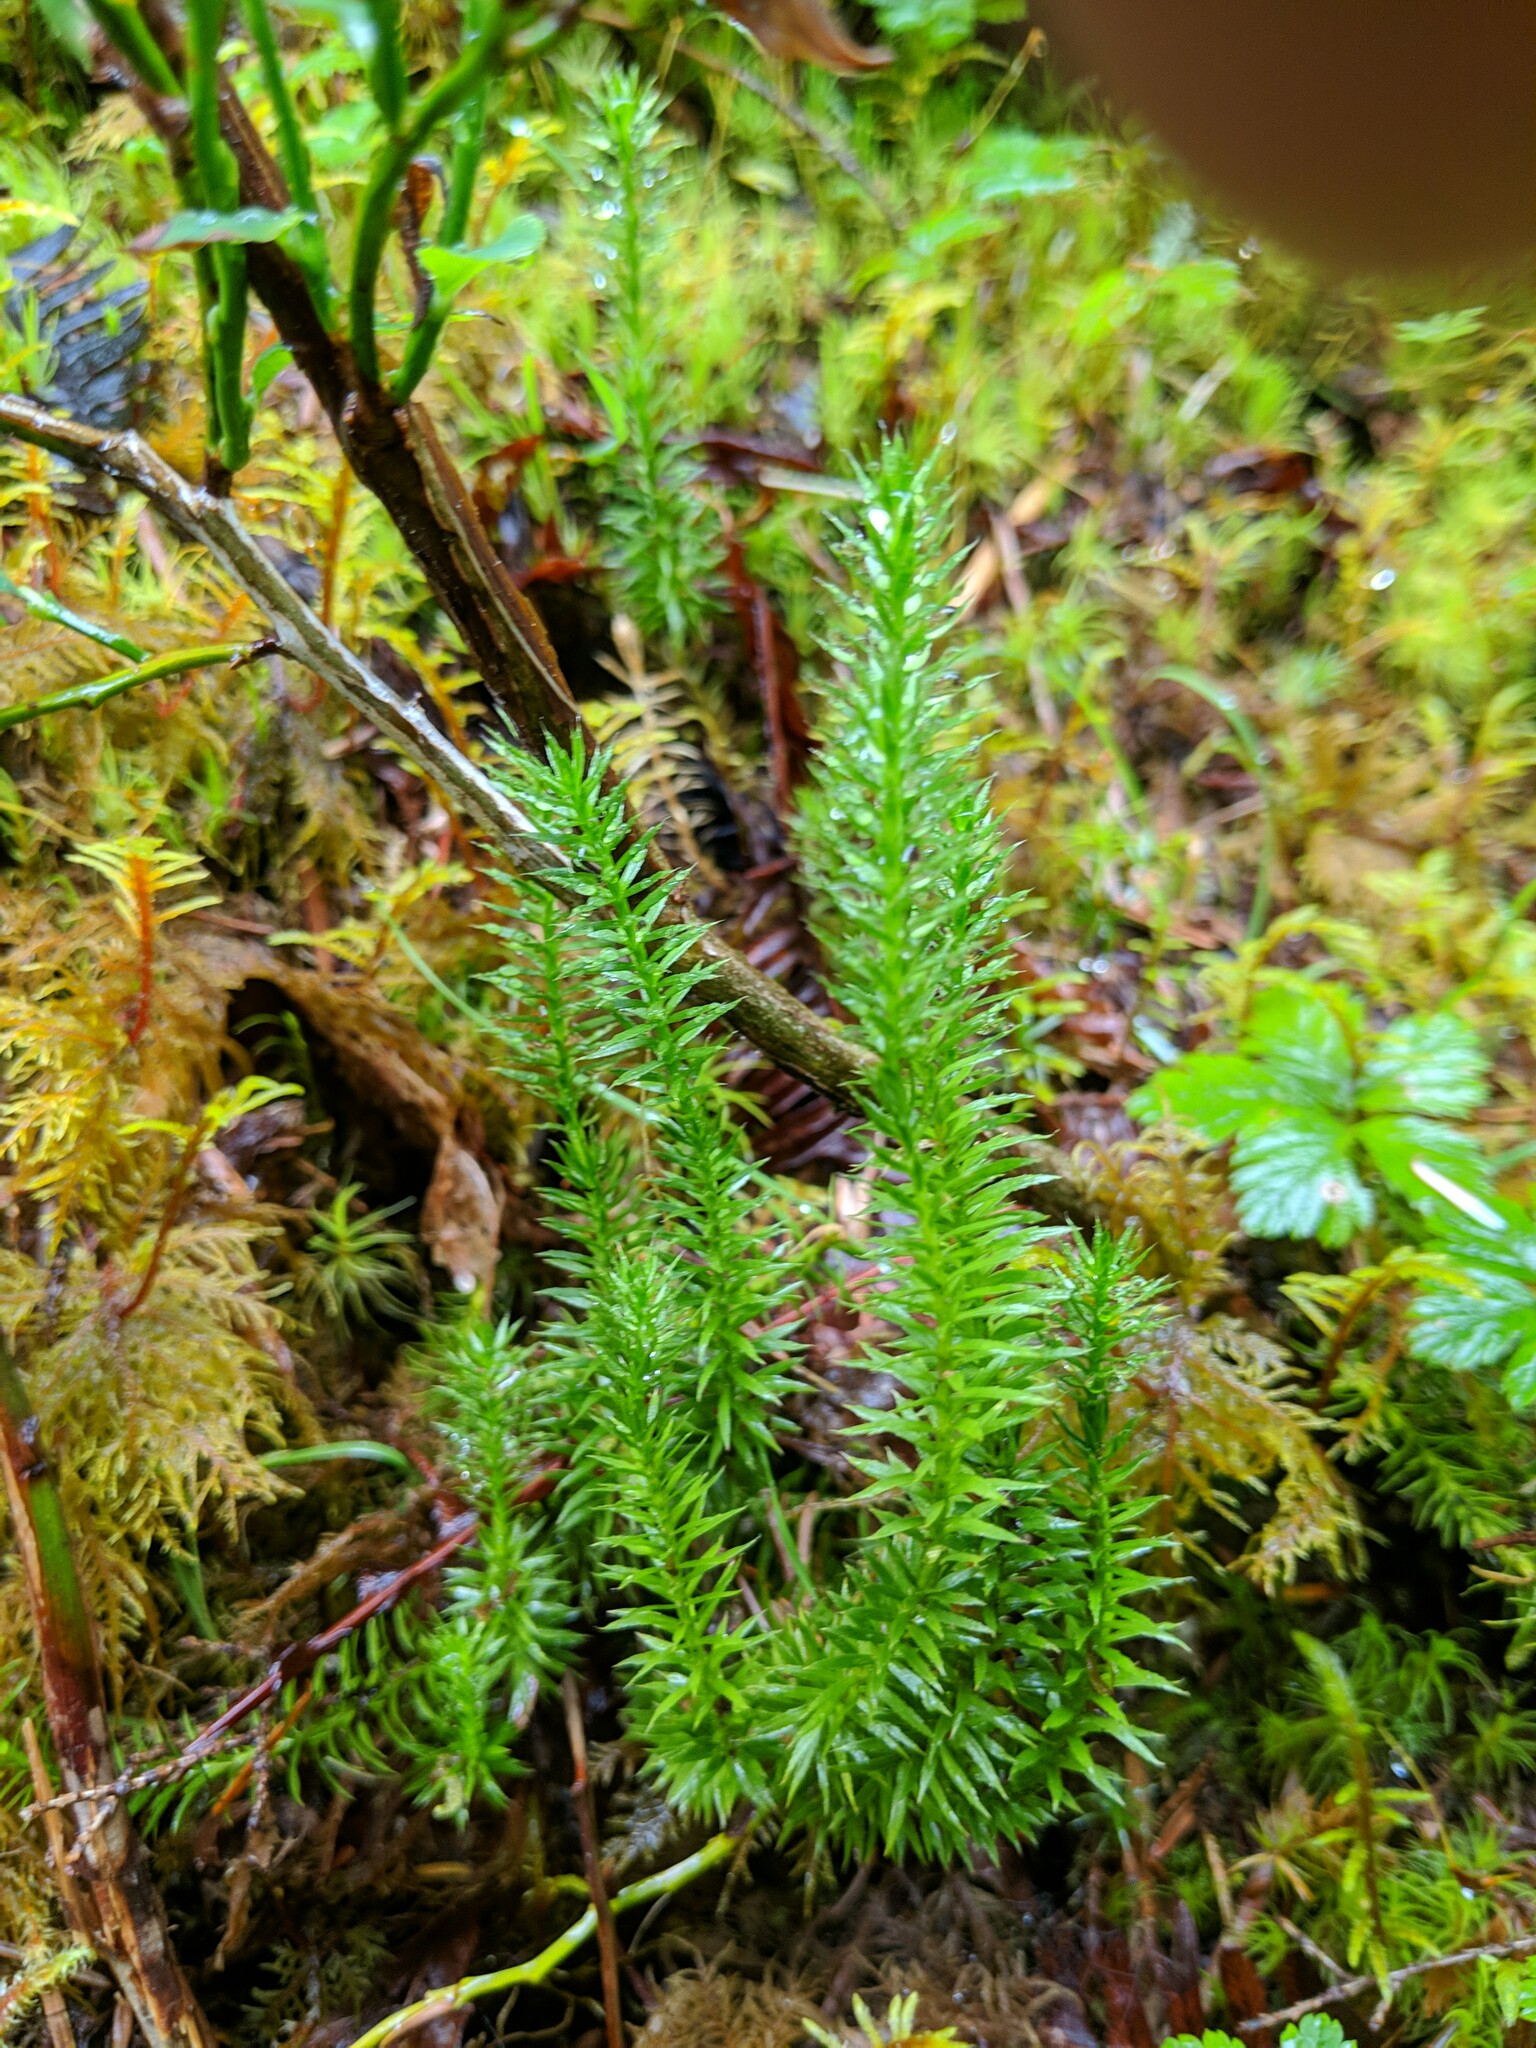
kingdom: Plantae
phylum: Tracheophyta
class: Lycopodiopsida
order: Lycopodiales
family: Lycopodiaceae
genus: Spinulum
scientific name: Spinulum annotinum
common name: Interrupted club-moss
